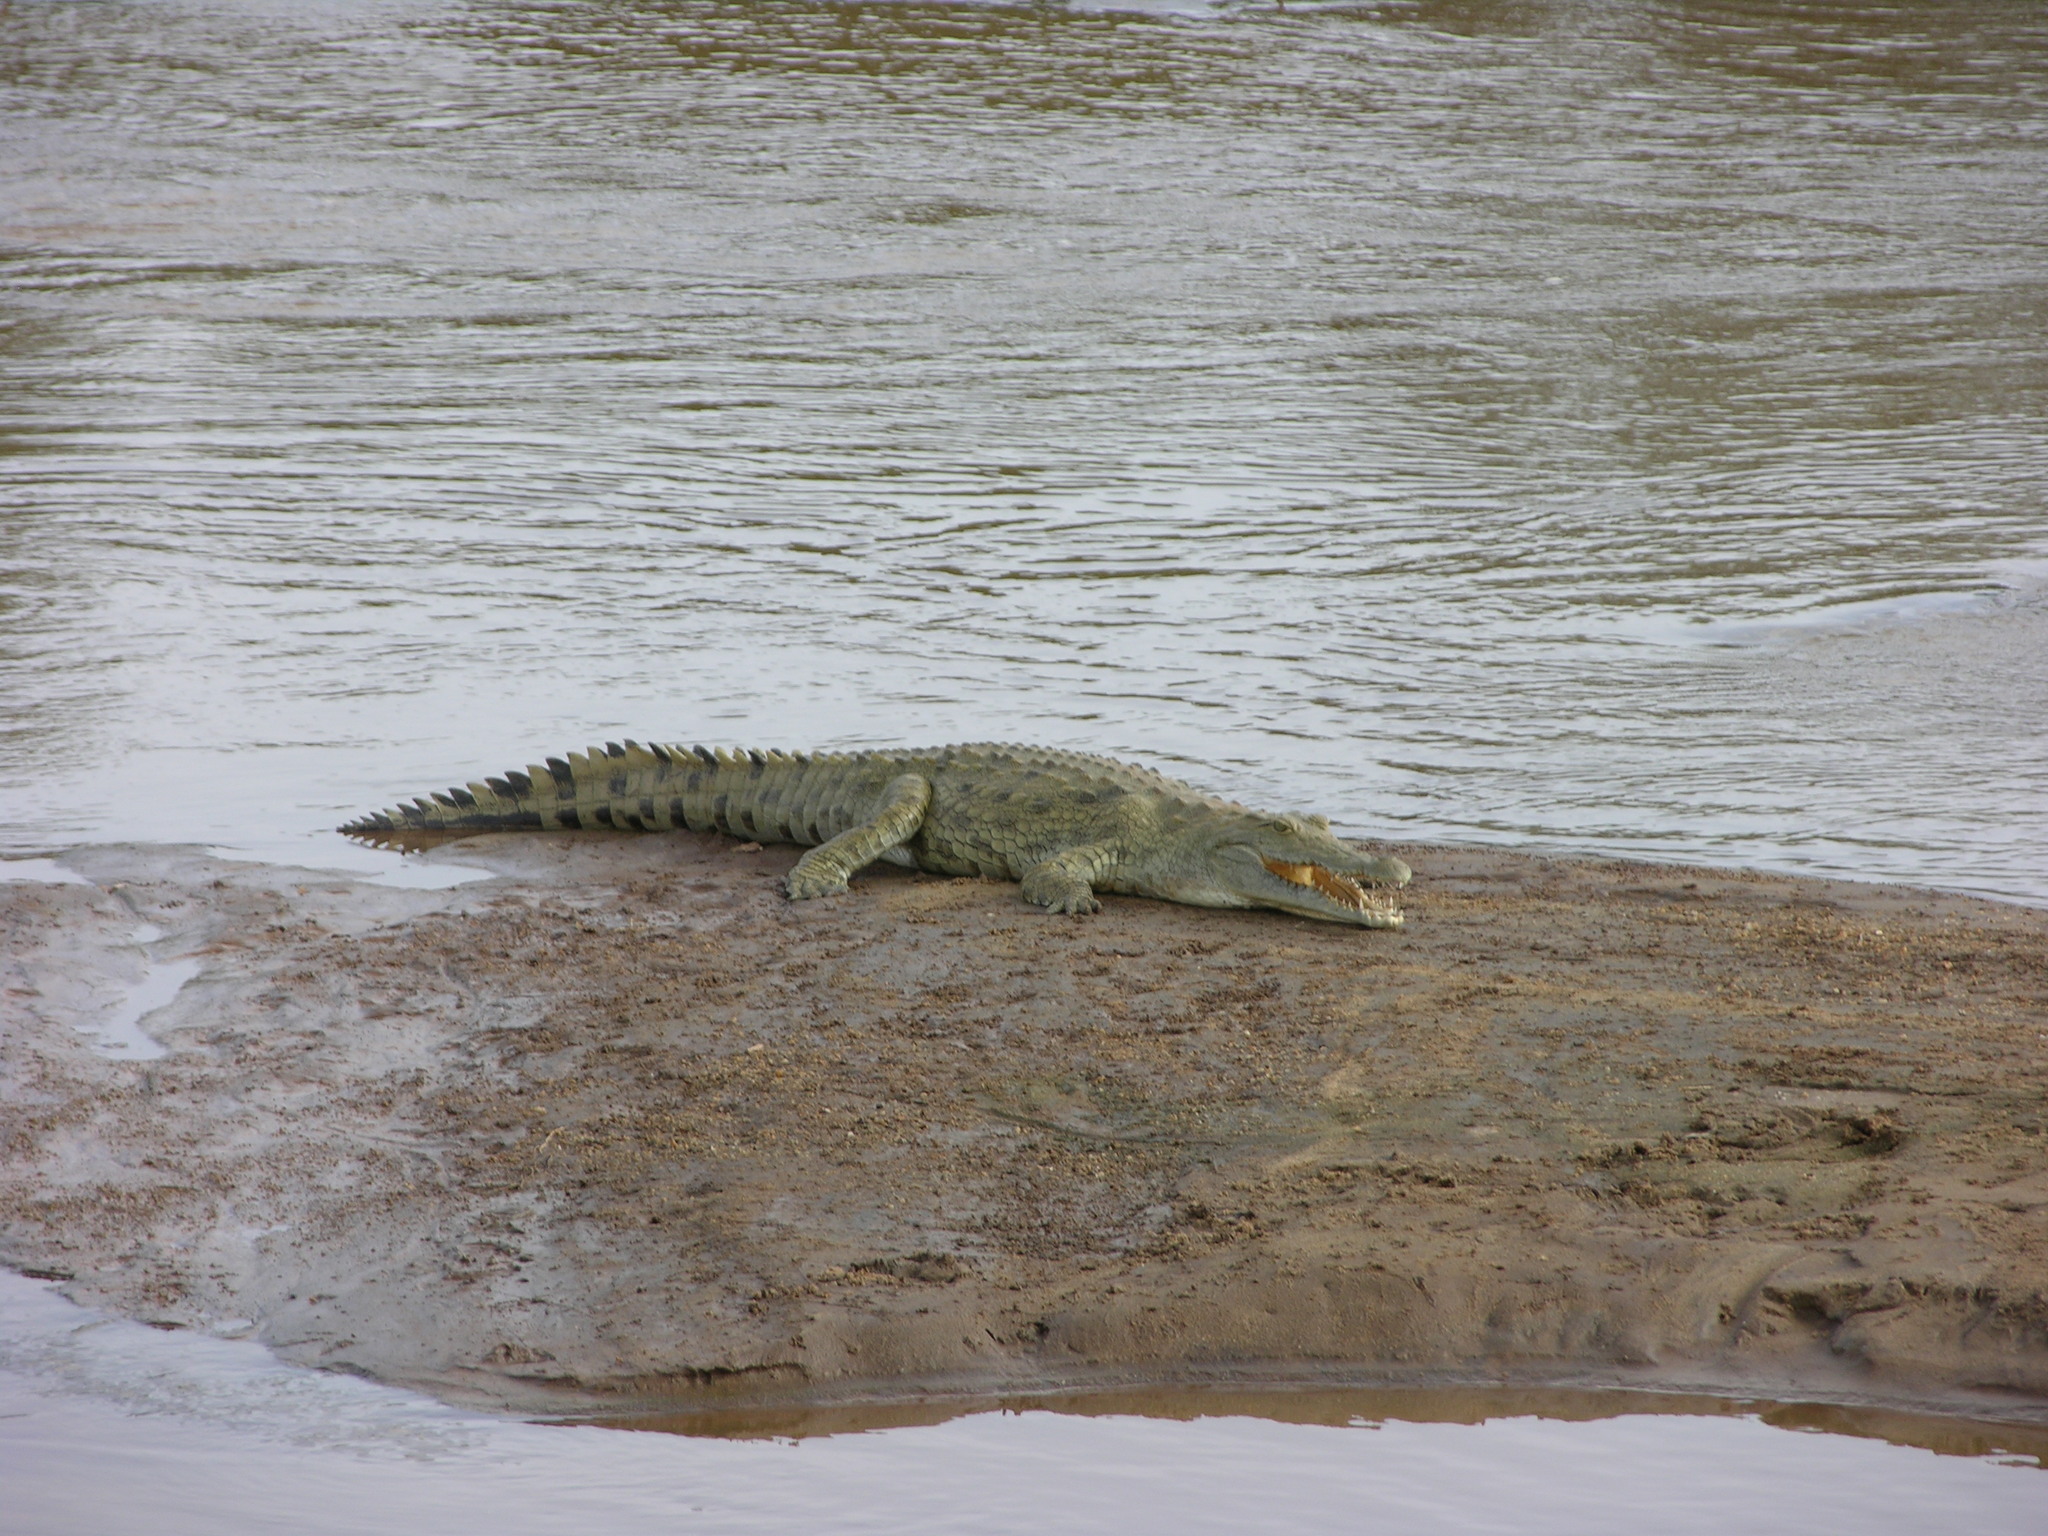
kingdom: Animalia
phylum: Chordata
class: Crocodylia
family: Crocodylidae
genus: Crocodylus
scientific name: Crocodylus niloticus
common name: Nile crocodile
